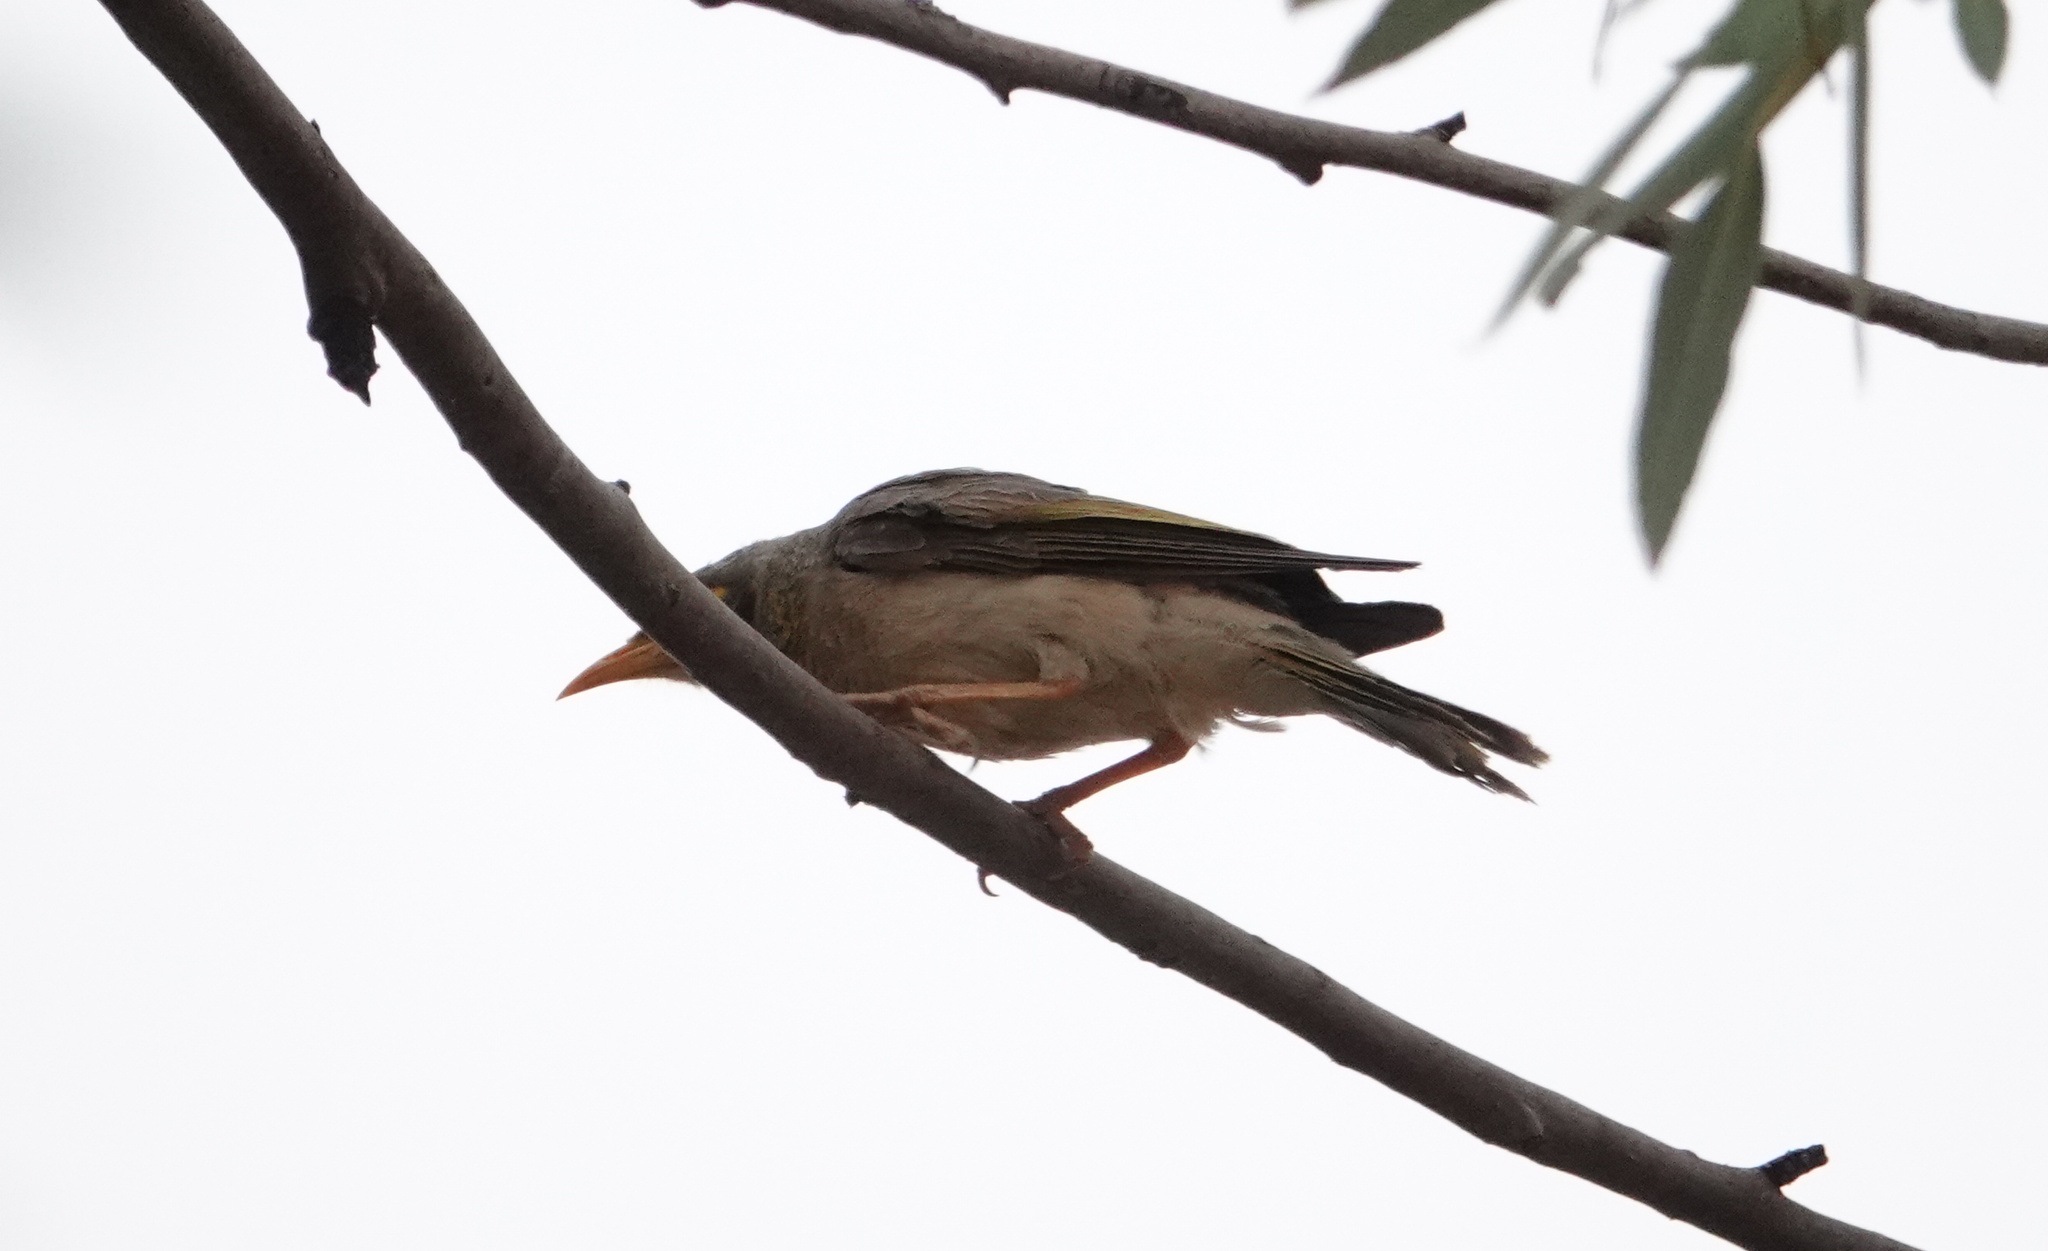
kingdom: Animalia
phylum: Chordata
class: Aves
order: Passeriformes
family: Meliphagidae
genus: Manorina
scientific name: Manorina flavigula
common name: Yellow-throated miner
